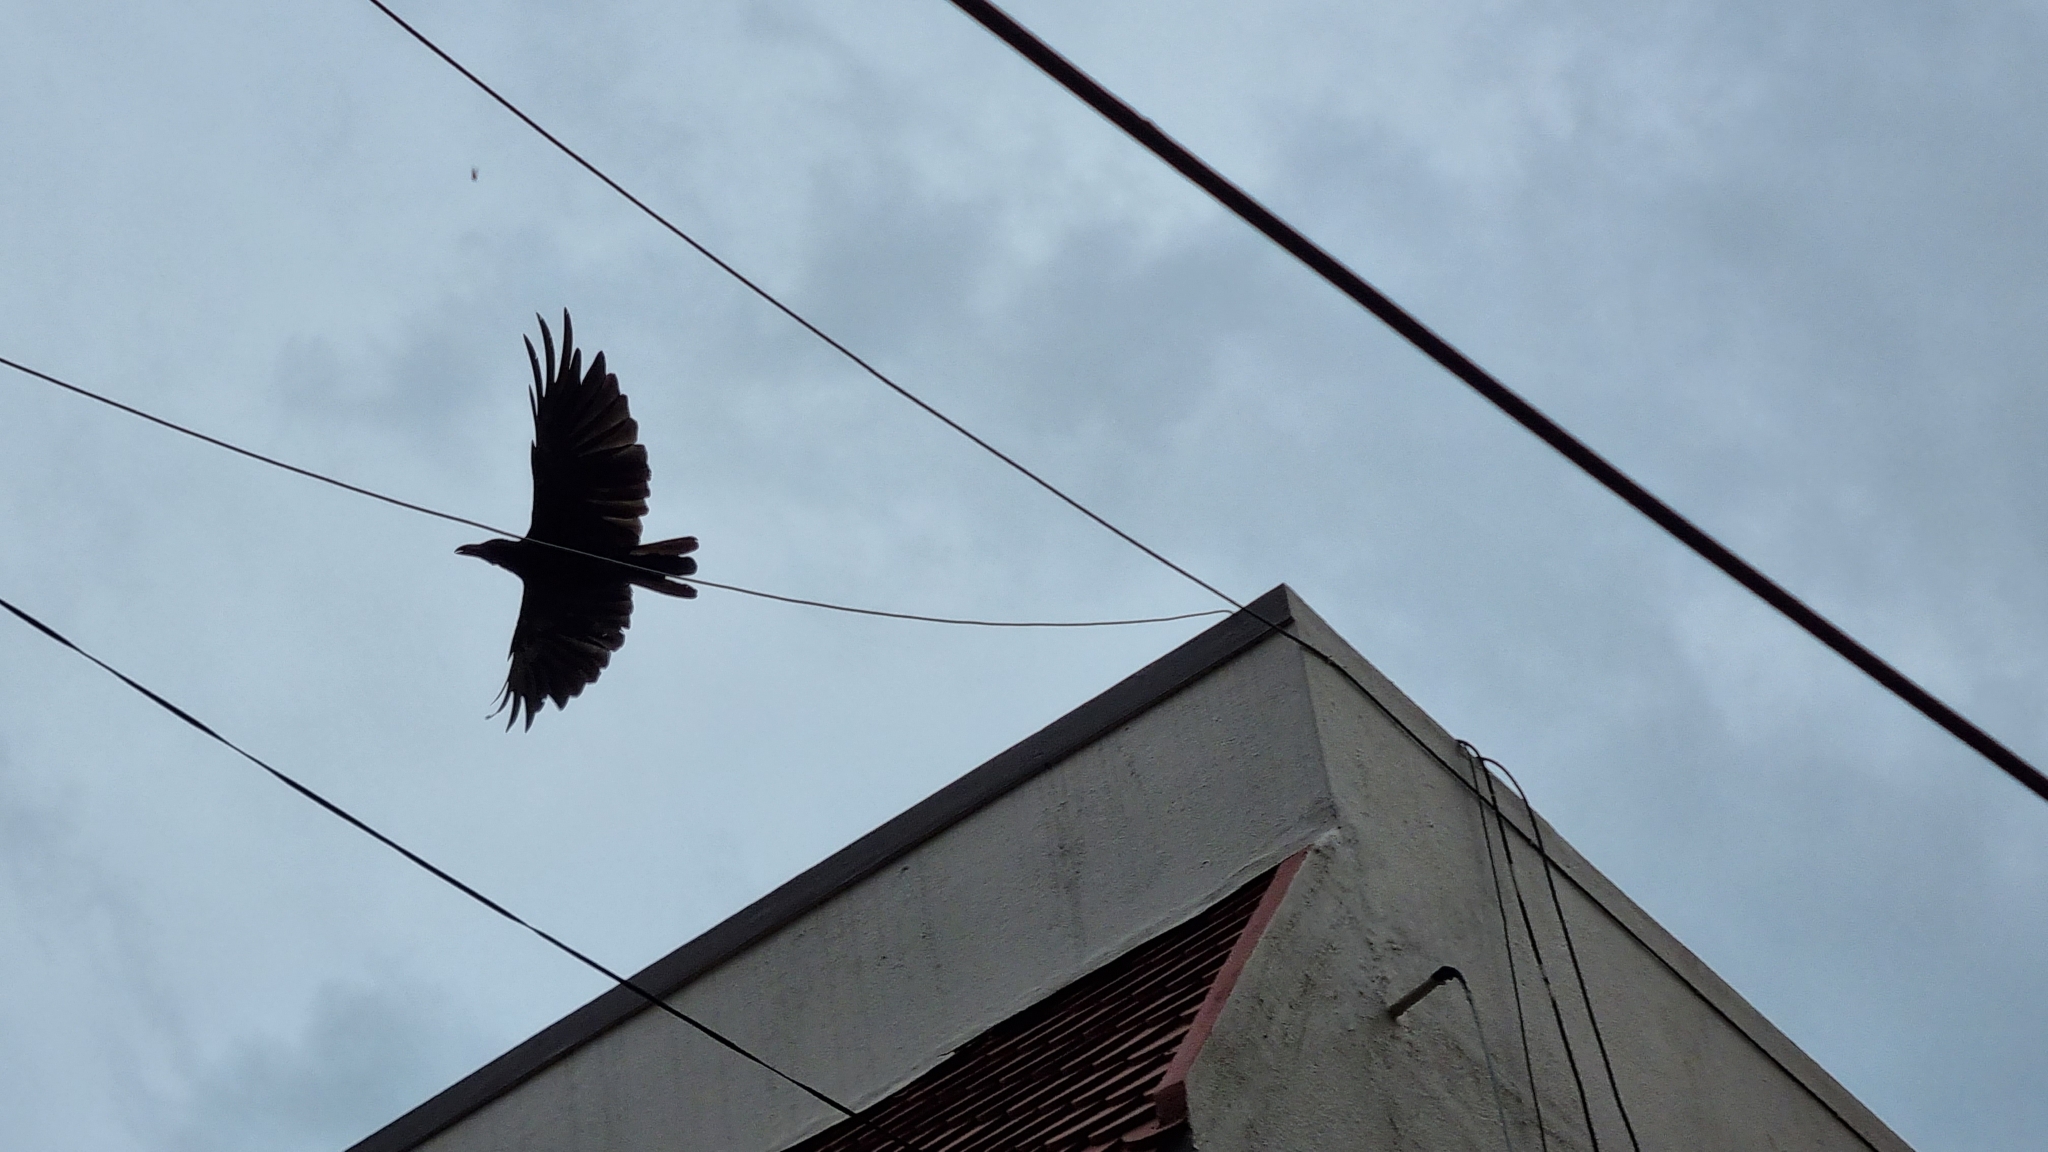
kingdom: Animalia
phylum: Chordata
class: Aves
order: Passeriformes
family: Corvidae
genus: Corvus
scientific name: Corvus macrorhynchos
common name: Large-billed crow
